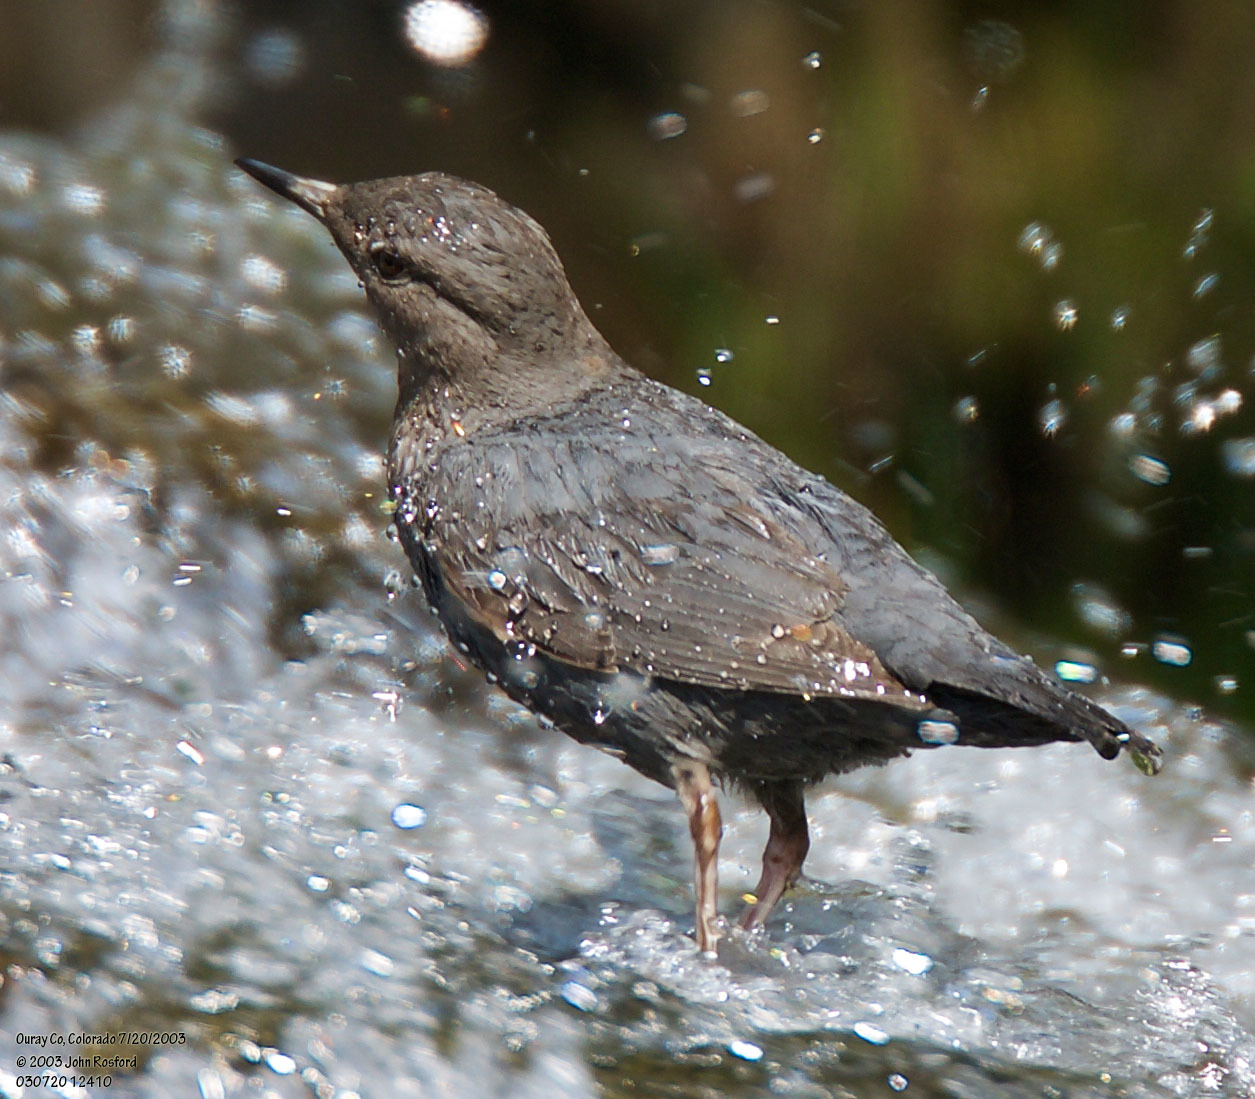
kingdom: Animalia
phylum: Chordata
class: Aves
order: Passeriformes
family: Cinclidae
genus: Cinclus
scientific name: Cinclus mexicanus
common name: American dipper
